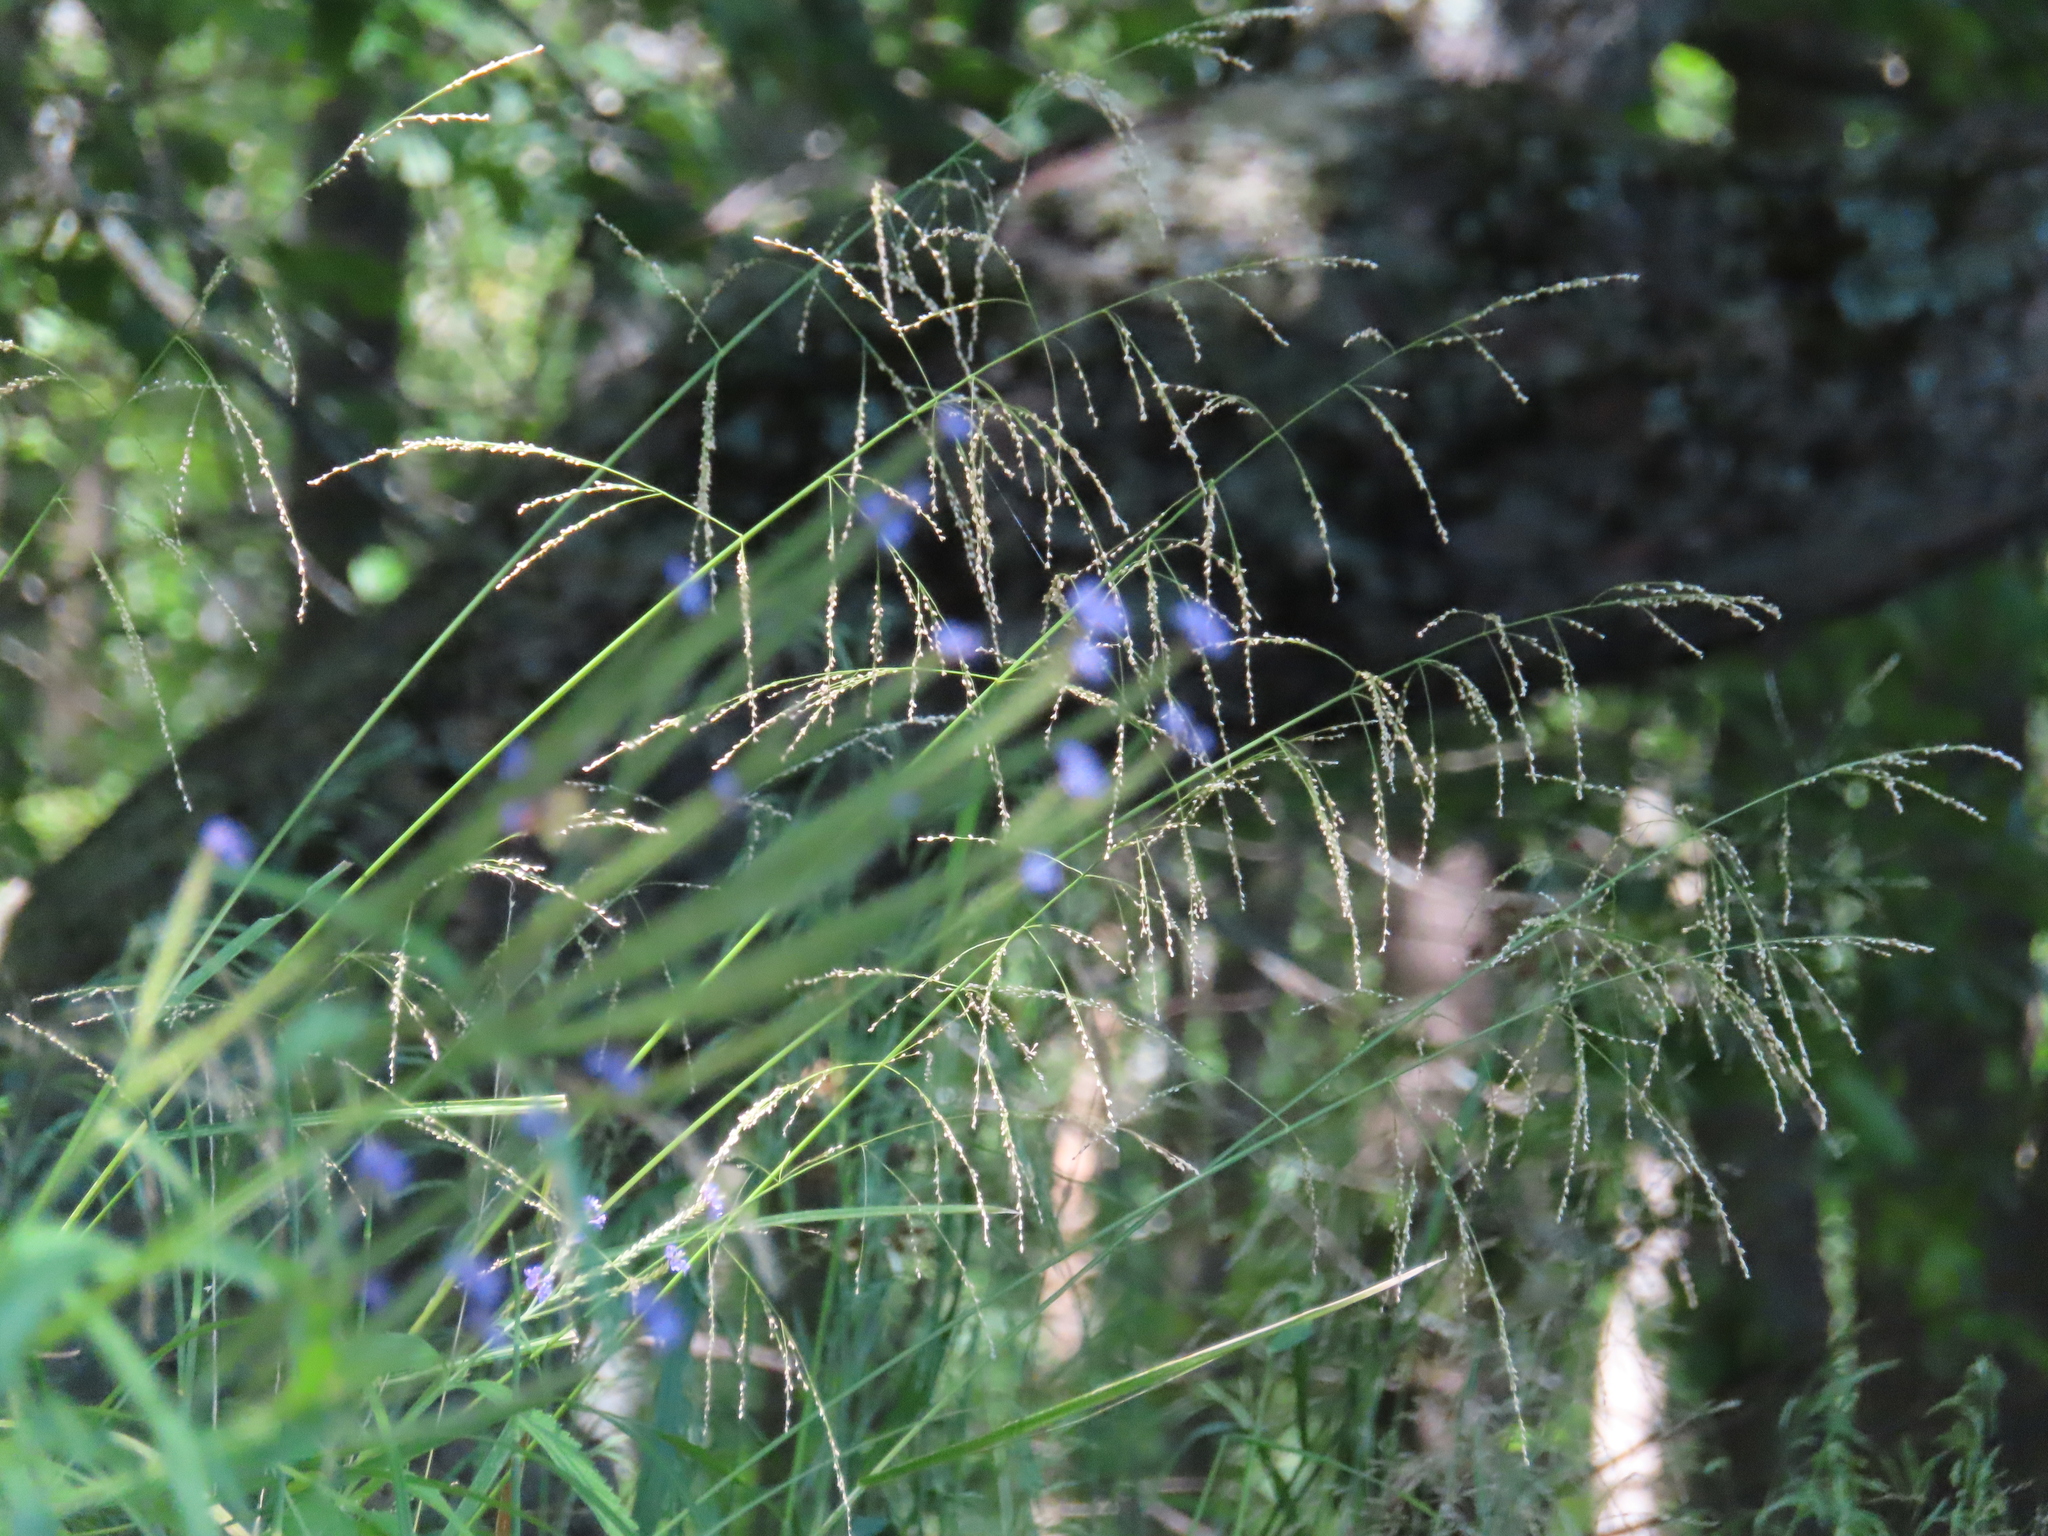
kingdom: Plantae
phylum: Tracheophyta
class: Liliopsida
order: Poales
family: Poaceae
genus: Glyceria
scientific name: Glyceria striata
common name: Fowl manna grass
